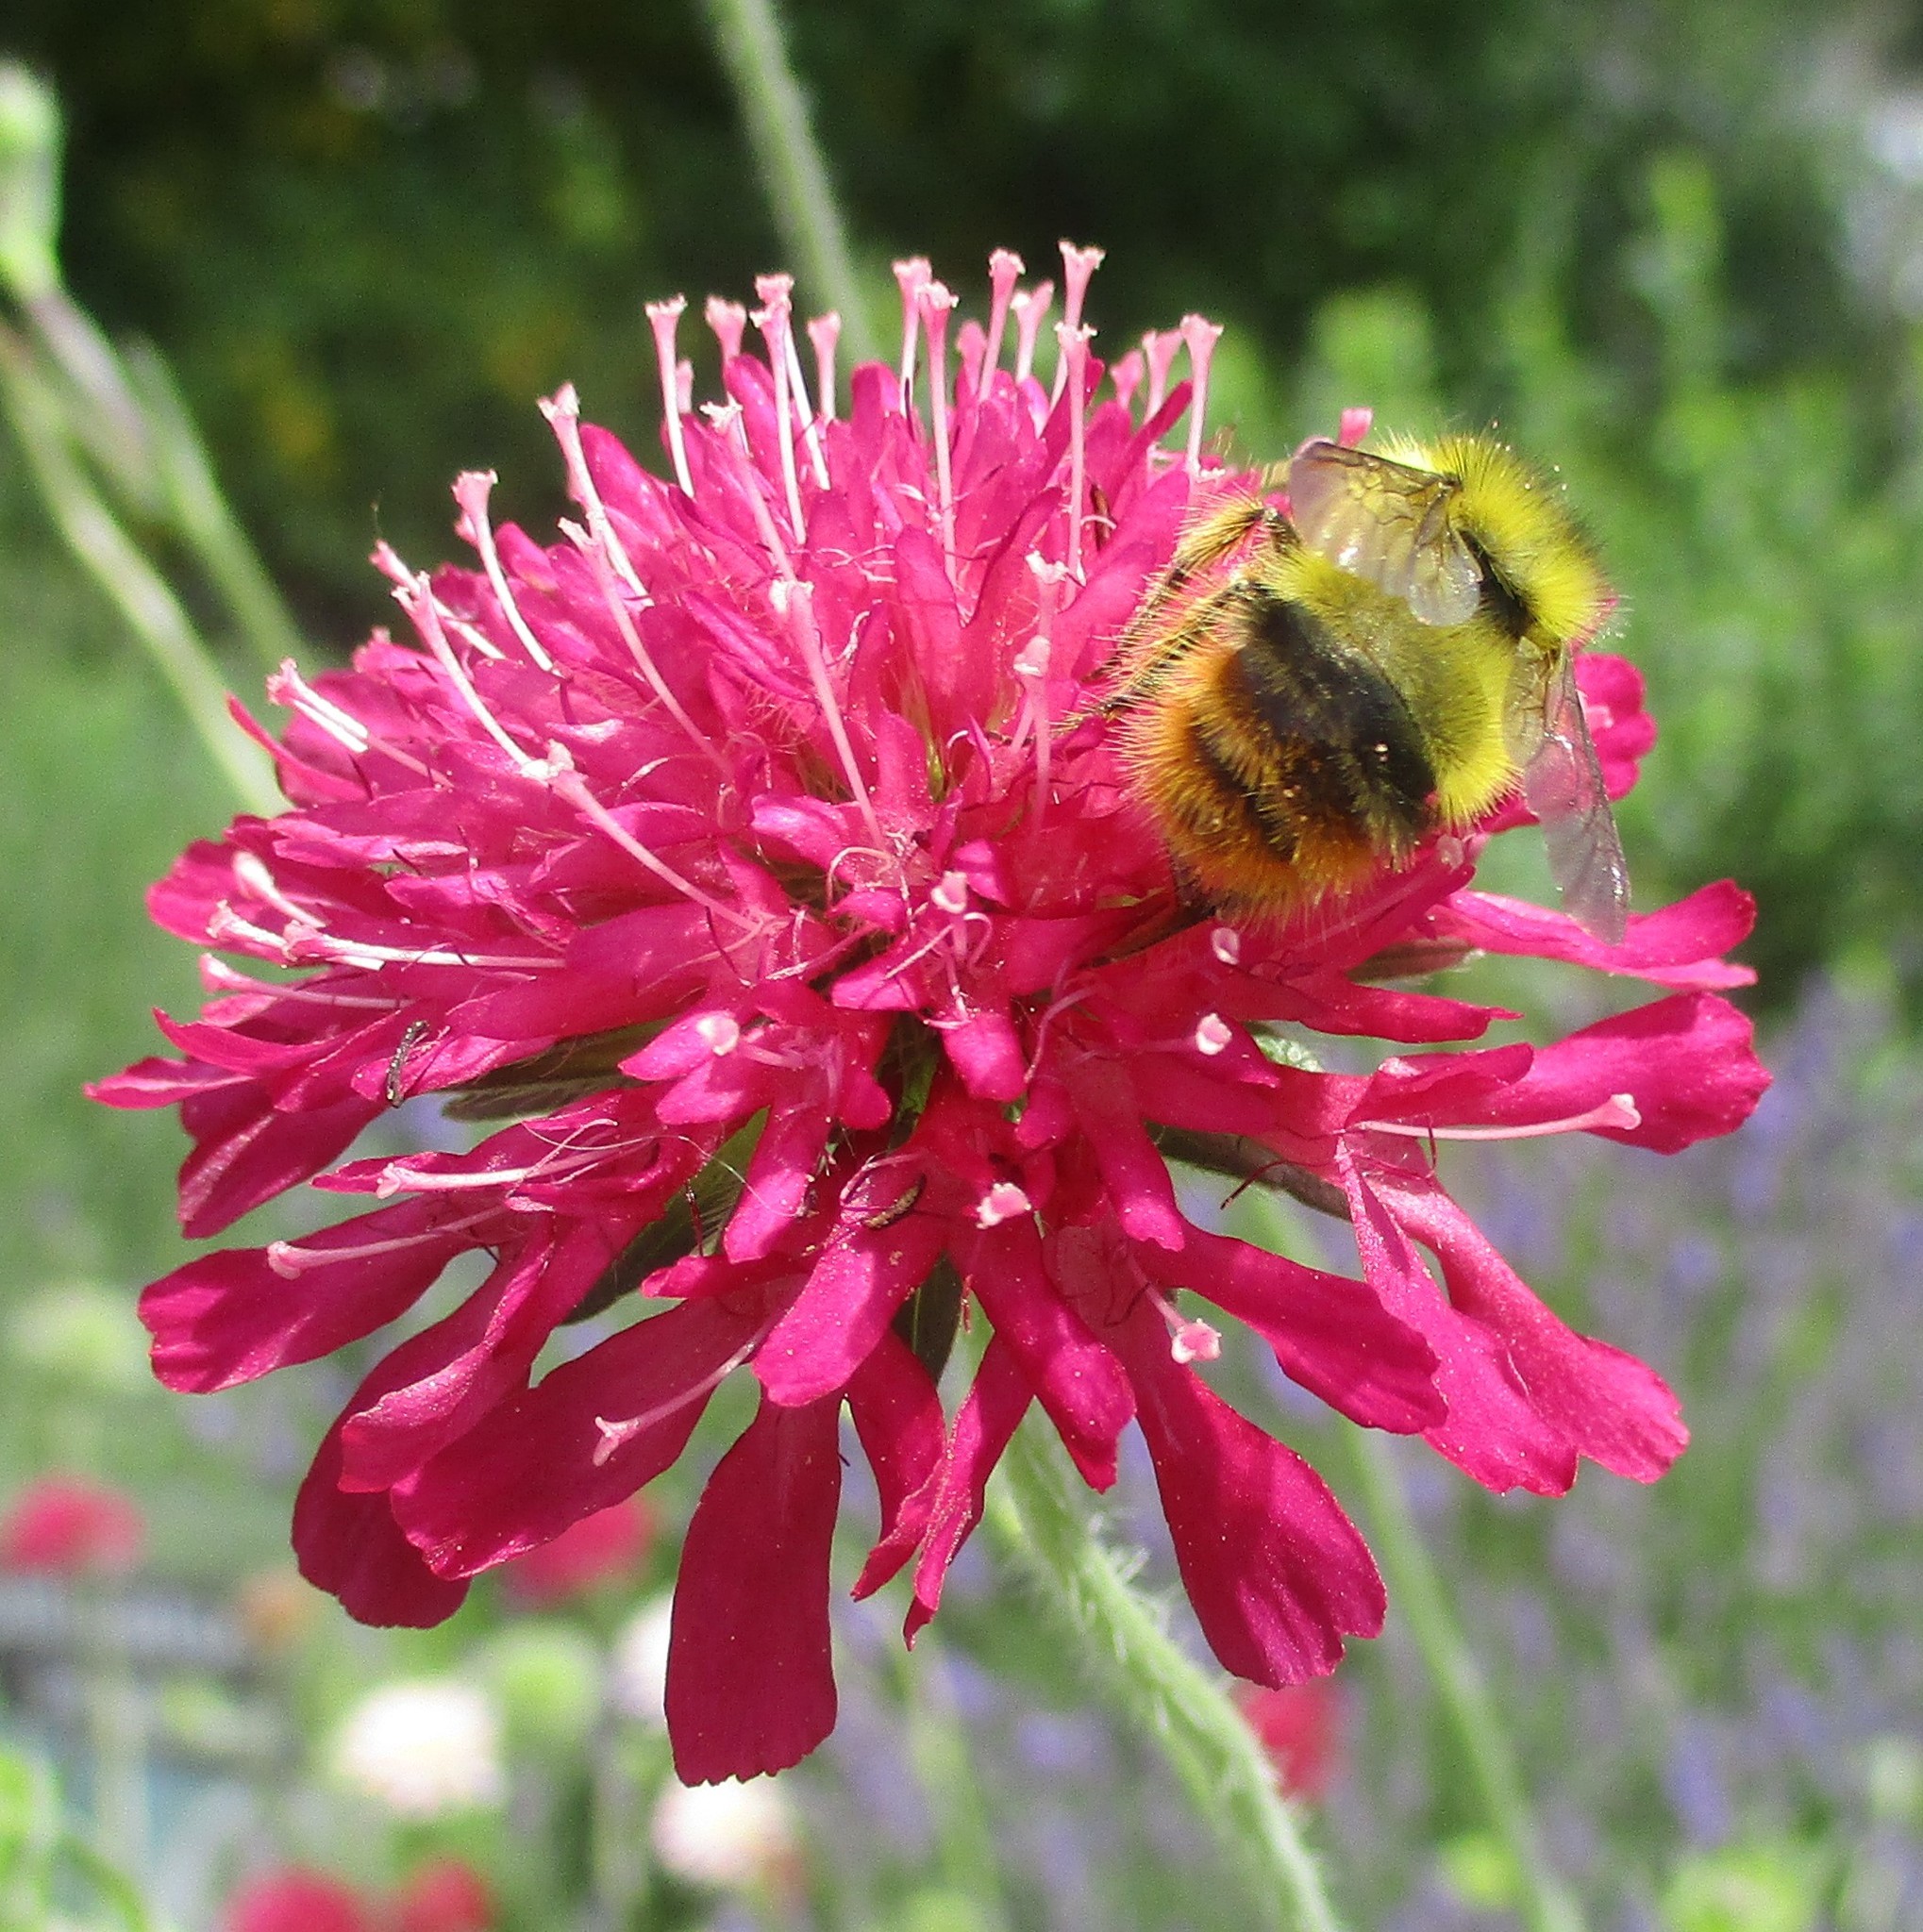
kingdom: Animalia
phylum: Arthropoda
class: Insecta
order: Hymenoptera
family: Apidae
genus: Bombus
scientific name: Bombus mixtus
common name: Fuzzy-horned bumble bee
